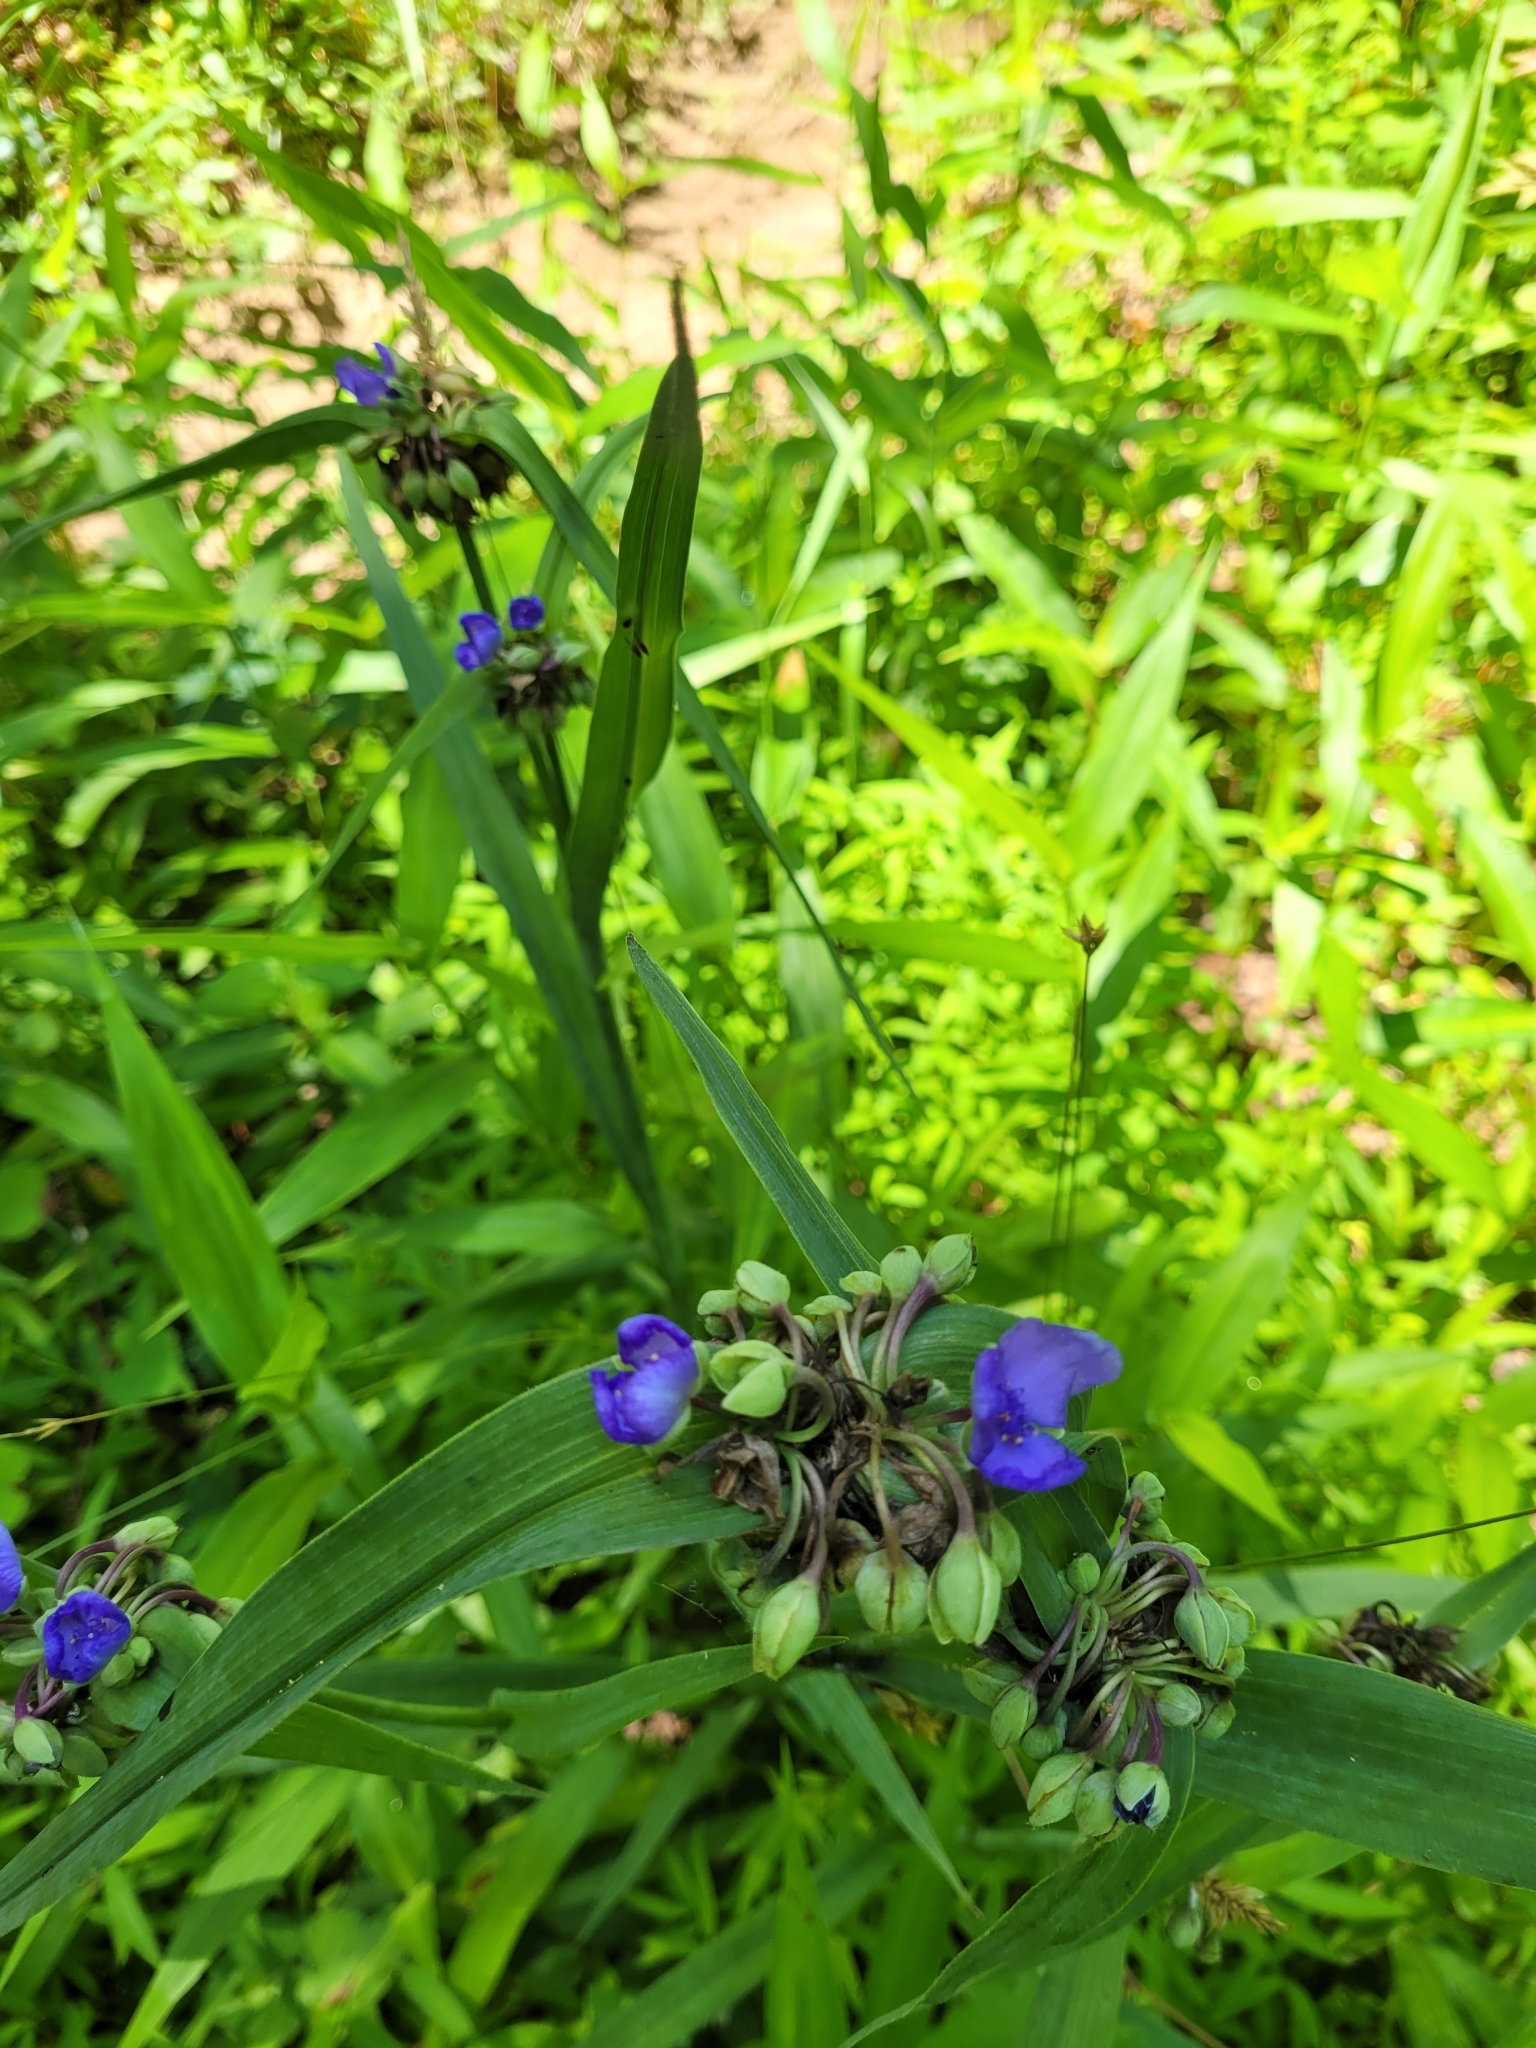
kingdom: Plantae
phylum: Tracheophyta
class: Liliopsida
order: Commelinales
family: Commelinaceae
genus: Tradescantia
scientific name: Tradescantia ohiensis
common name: Ohio spiderwort
